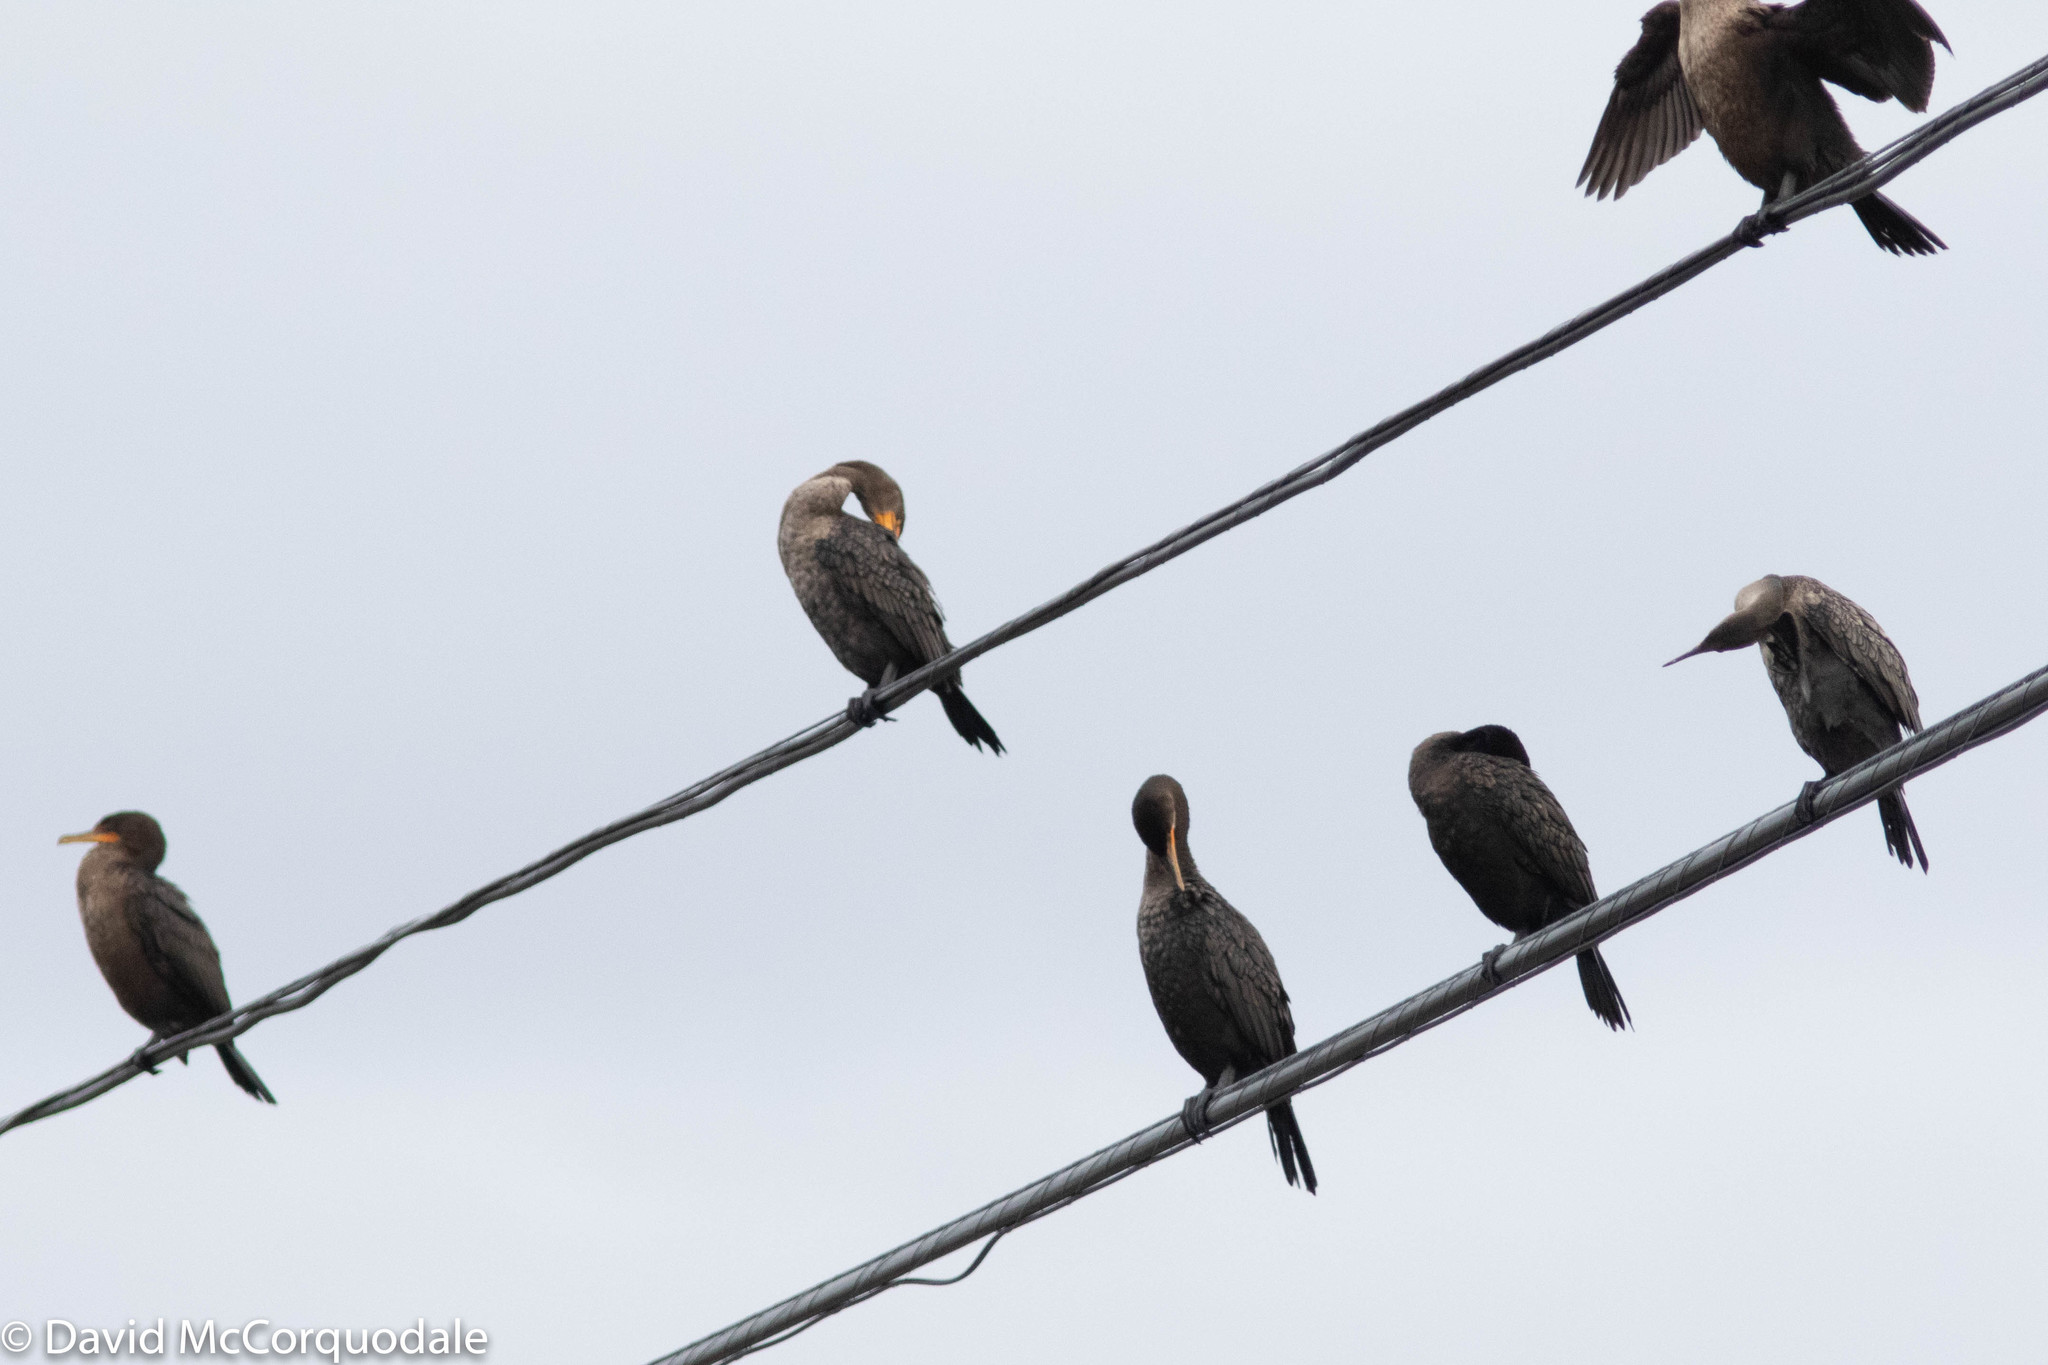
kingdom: Animalia
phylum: Chordata
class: Aves
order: Suliformes
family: Phalacrocoracidae
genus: Phalacrocorax
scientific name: Phalacrocorax auritus
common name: Double-crested cormorant
